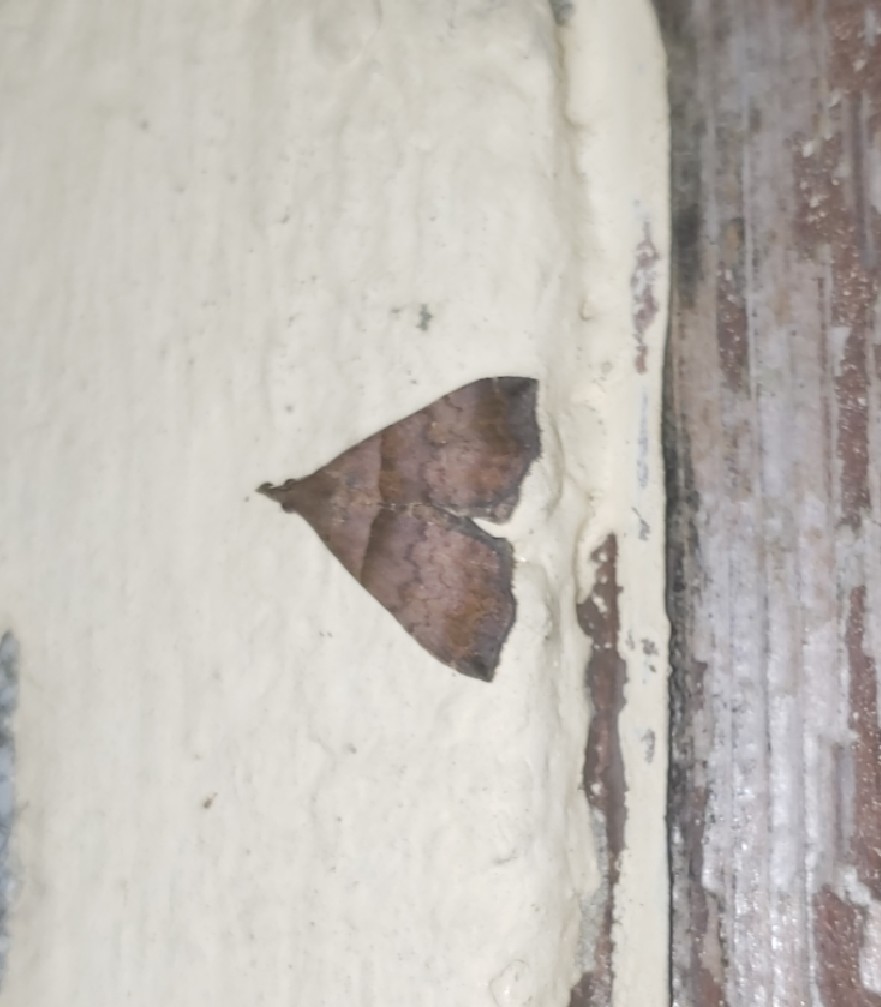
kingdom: Animalia
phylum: Arthropoda
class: Insecta
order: Lepidoptera
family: Erebidae
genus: Lascoria
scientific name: Lascoria ambigualis
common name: Ambiguous moth
